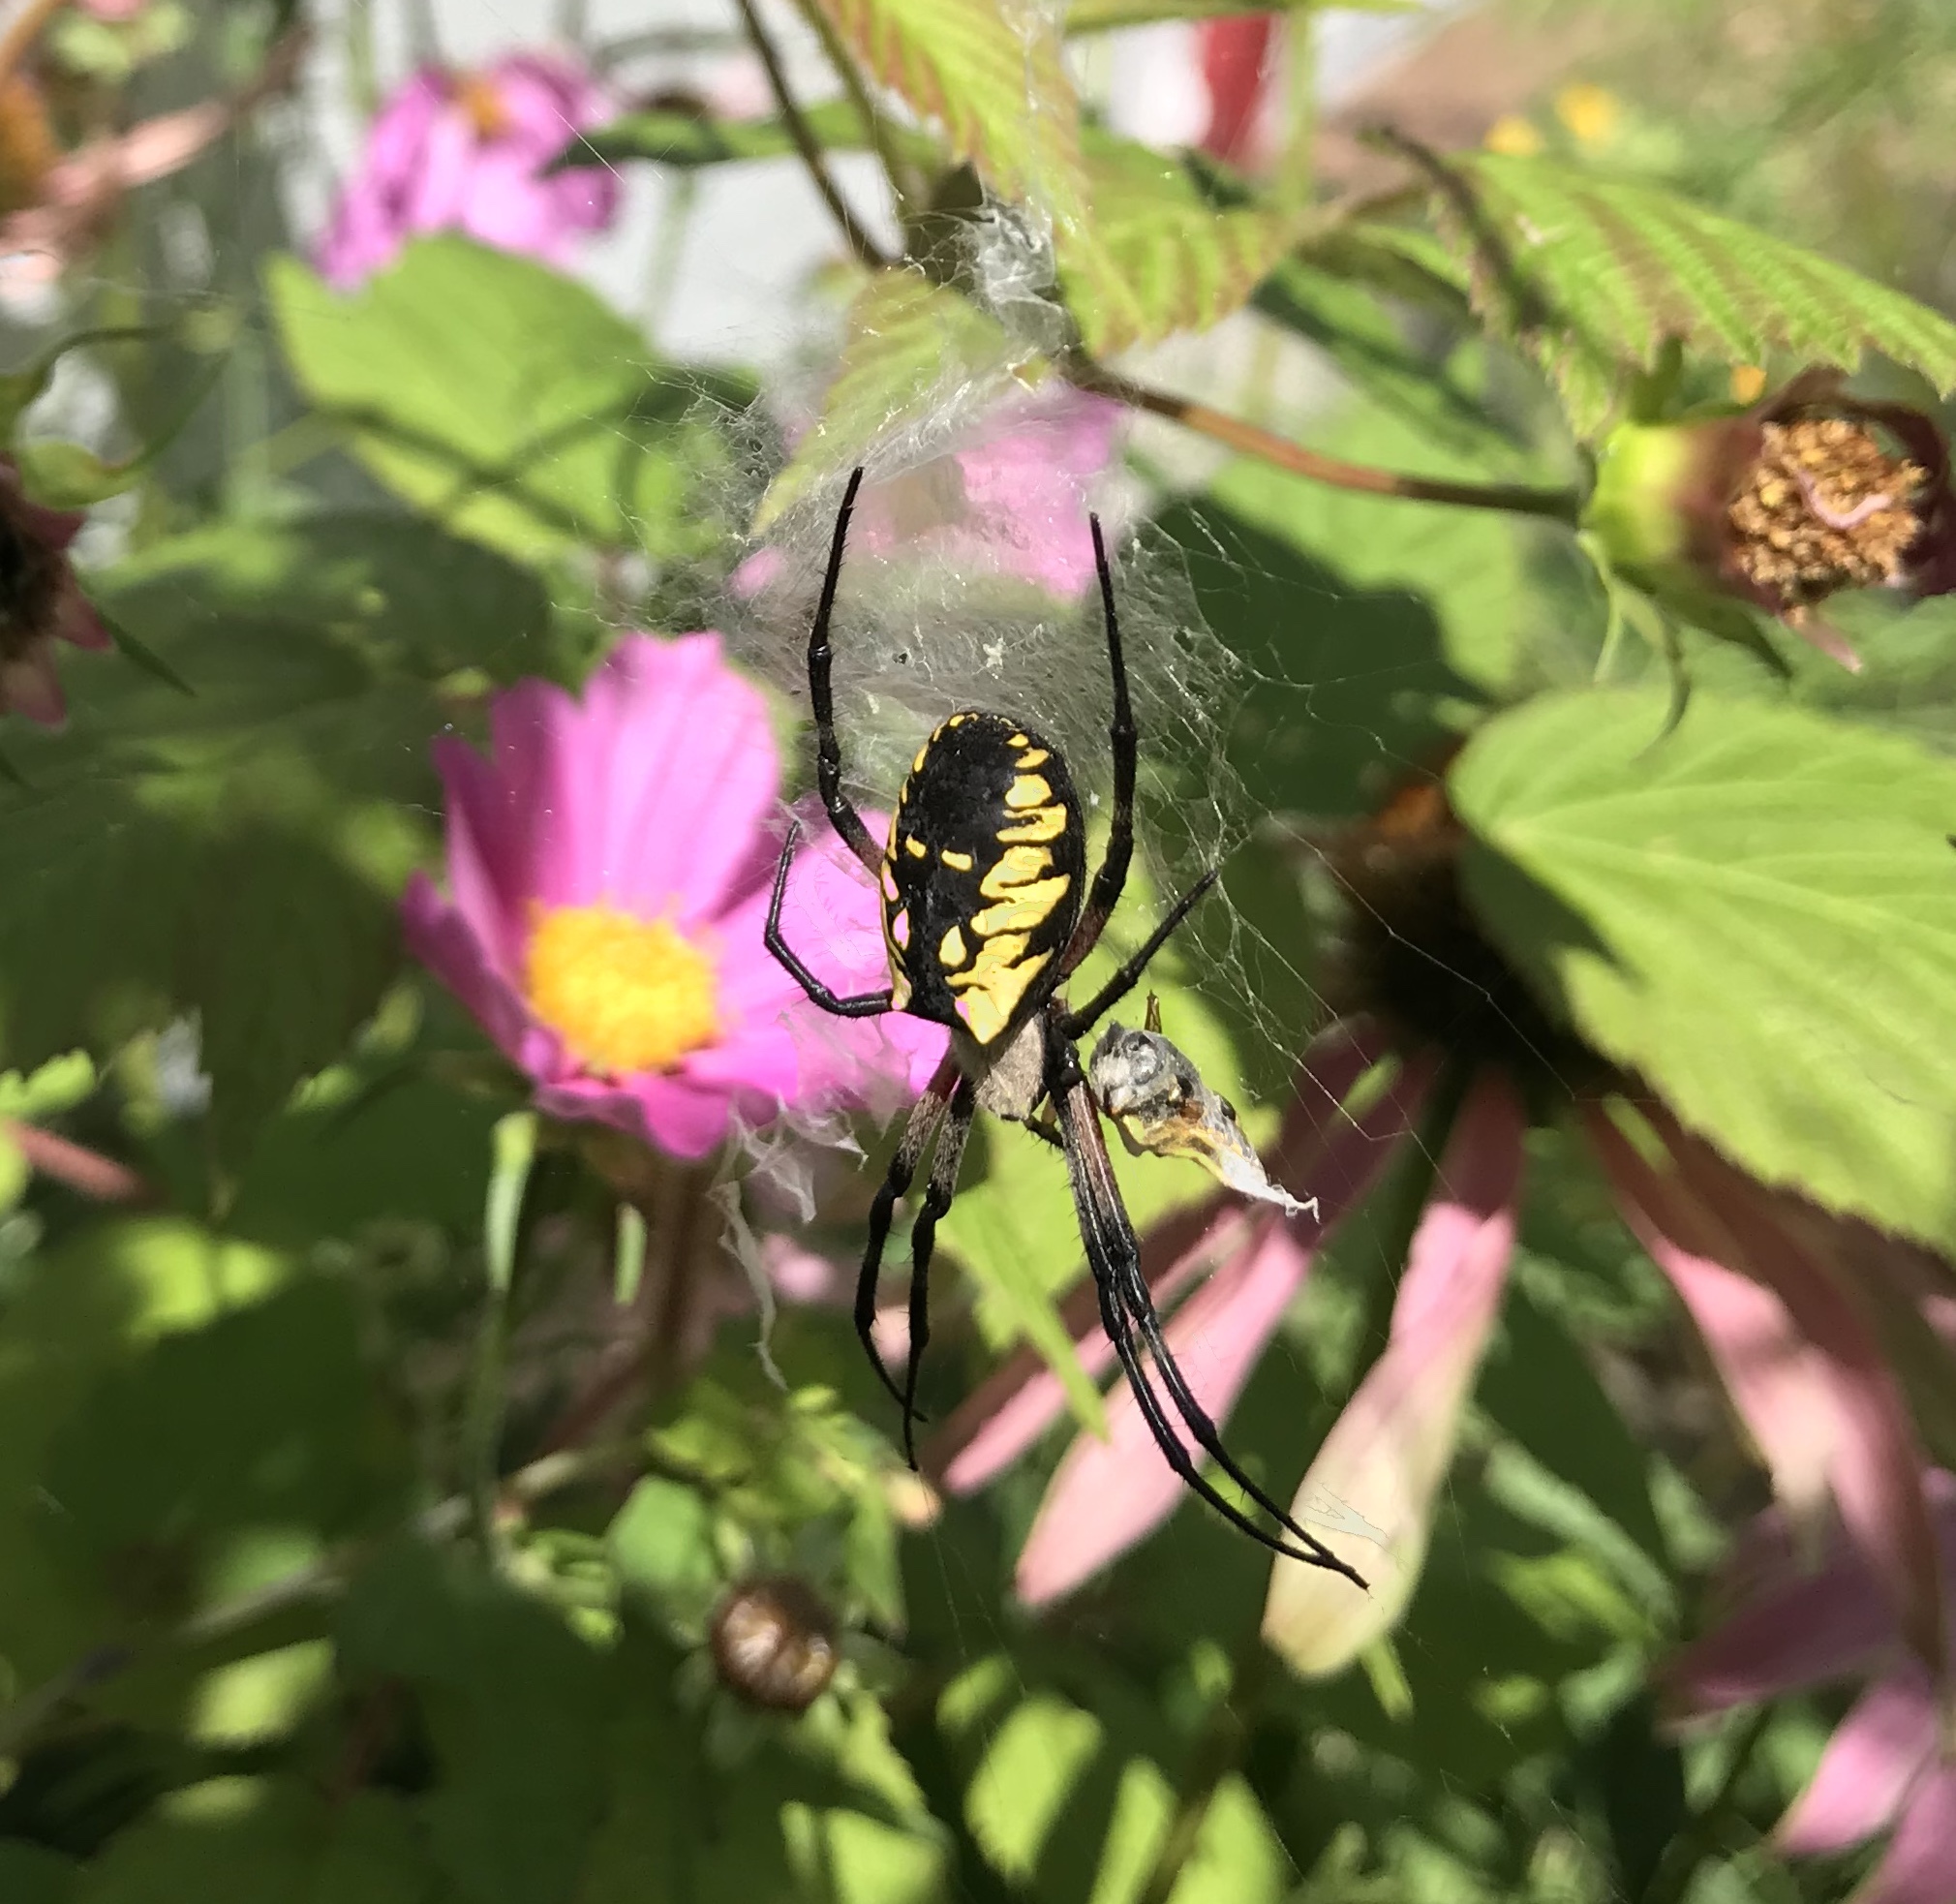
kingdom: Animalia
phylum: Arthropoda
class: Arachnida
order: Araneae
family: Araneidae
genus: Argiope
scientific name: Argiope aurantia
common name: Orb weavers
